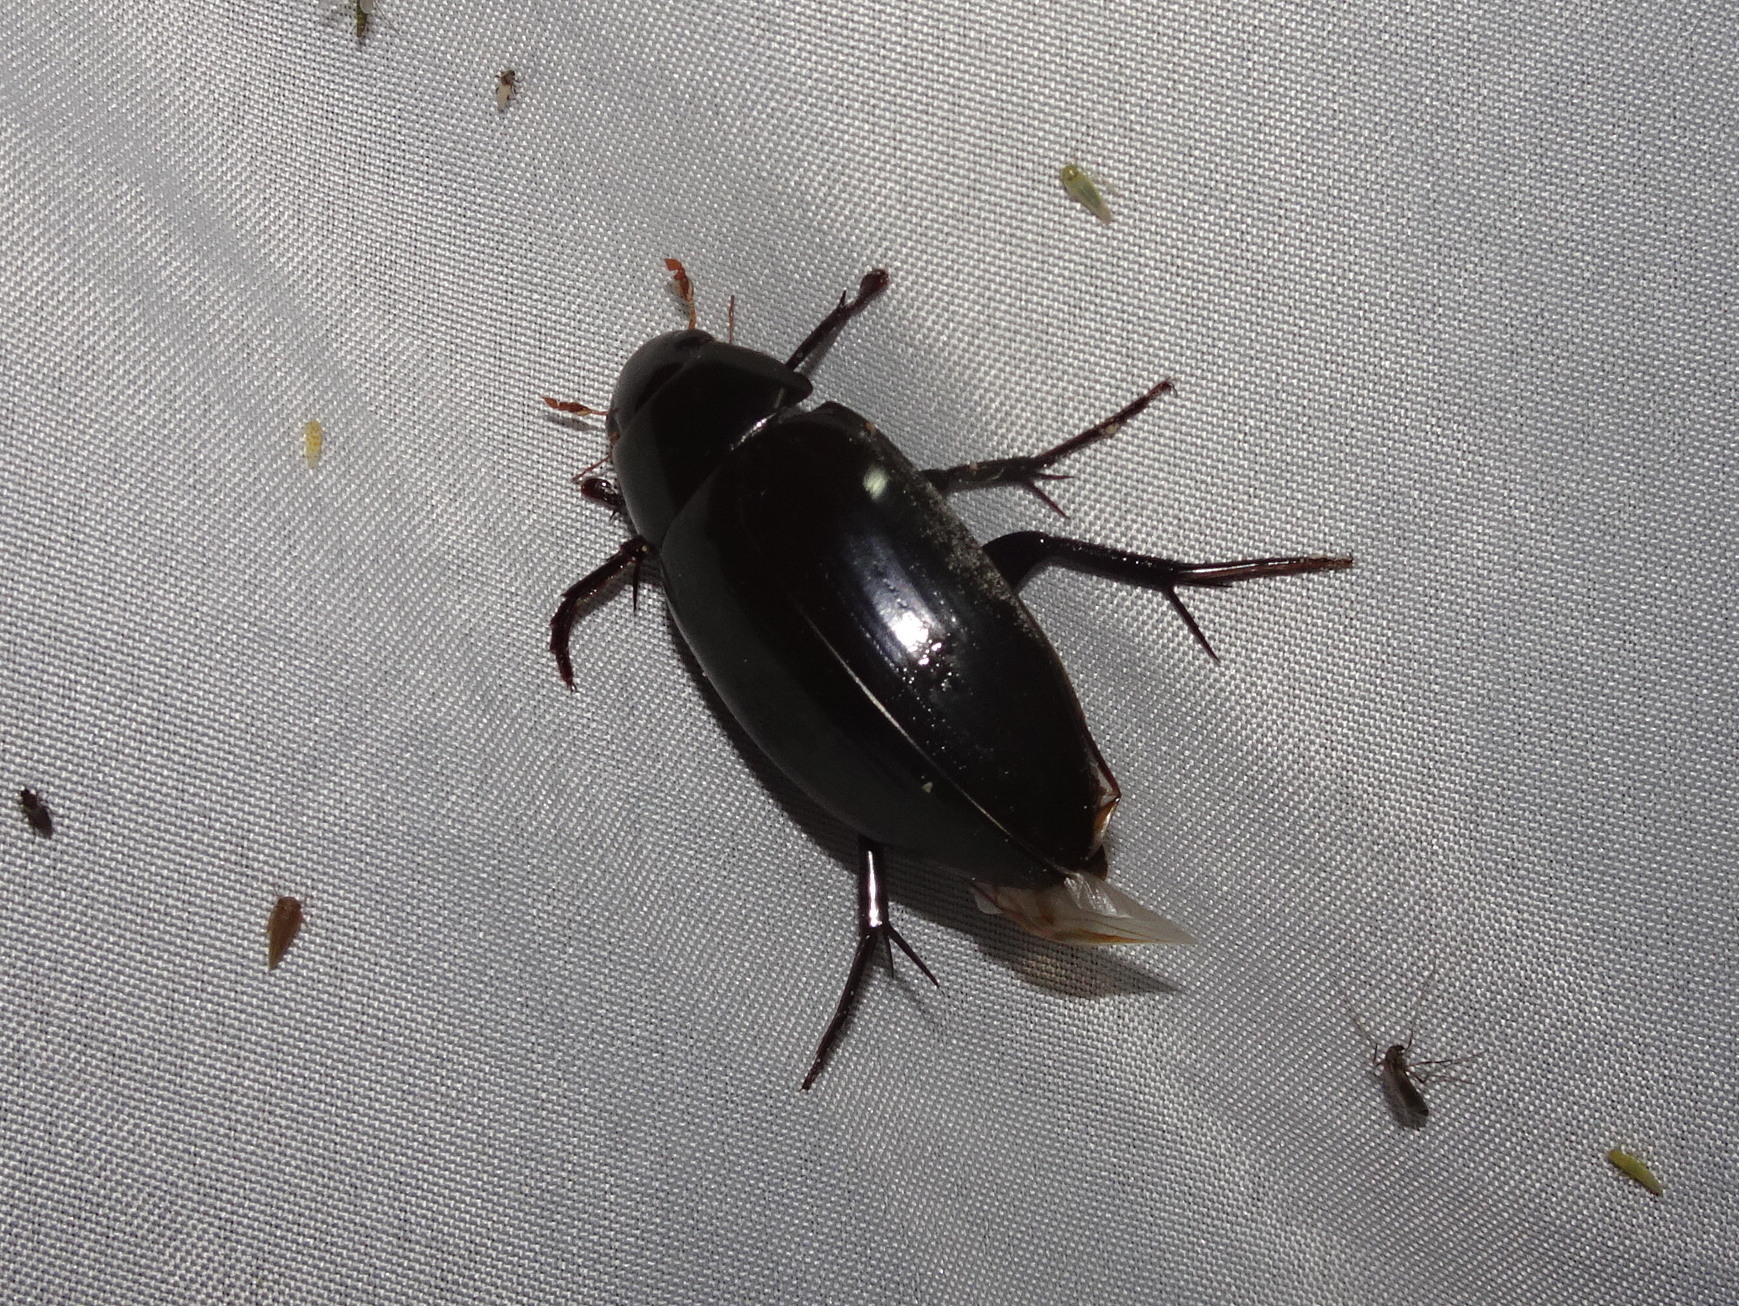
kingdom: Animalia
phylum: Arthropoda
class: Insecta
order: Coleoptera
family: Hydrophilidae
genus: Hydrophilus
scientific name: Hydrophilus triangularis
